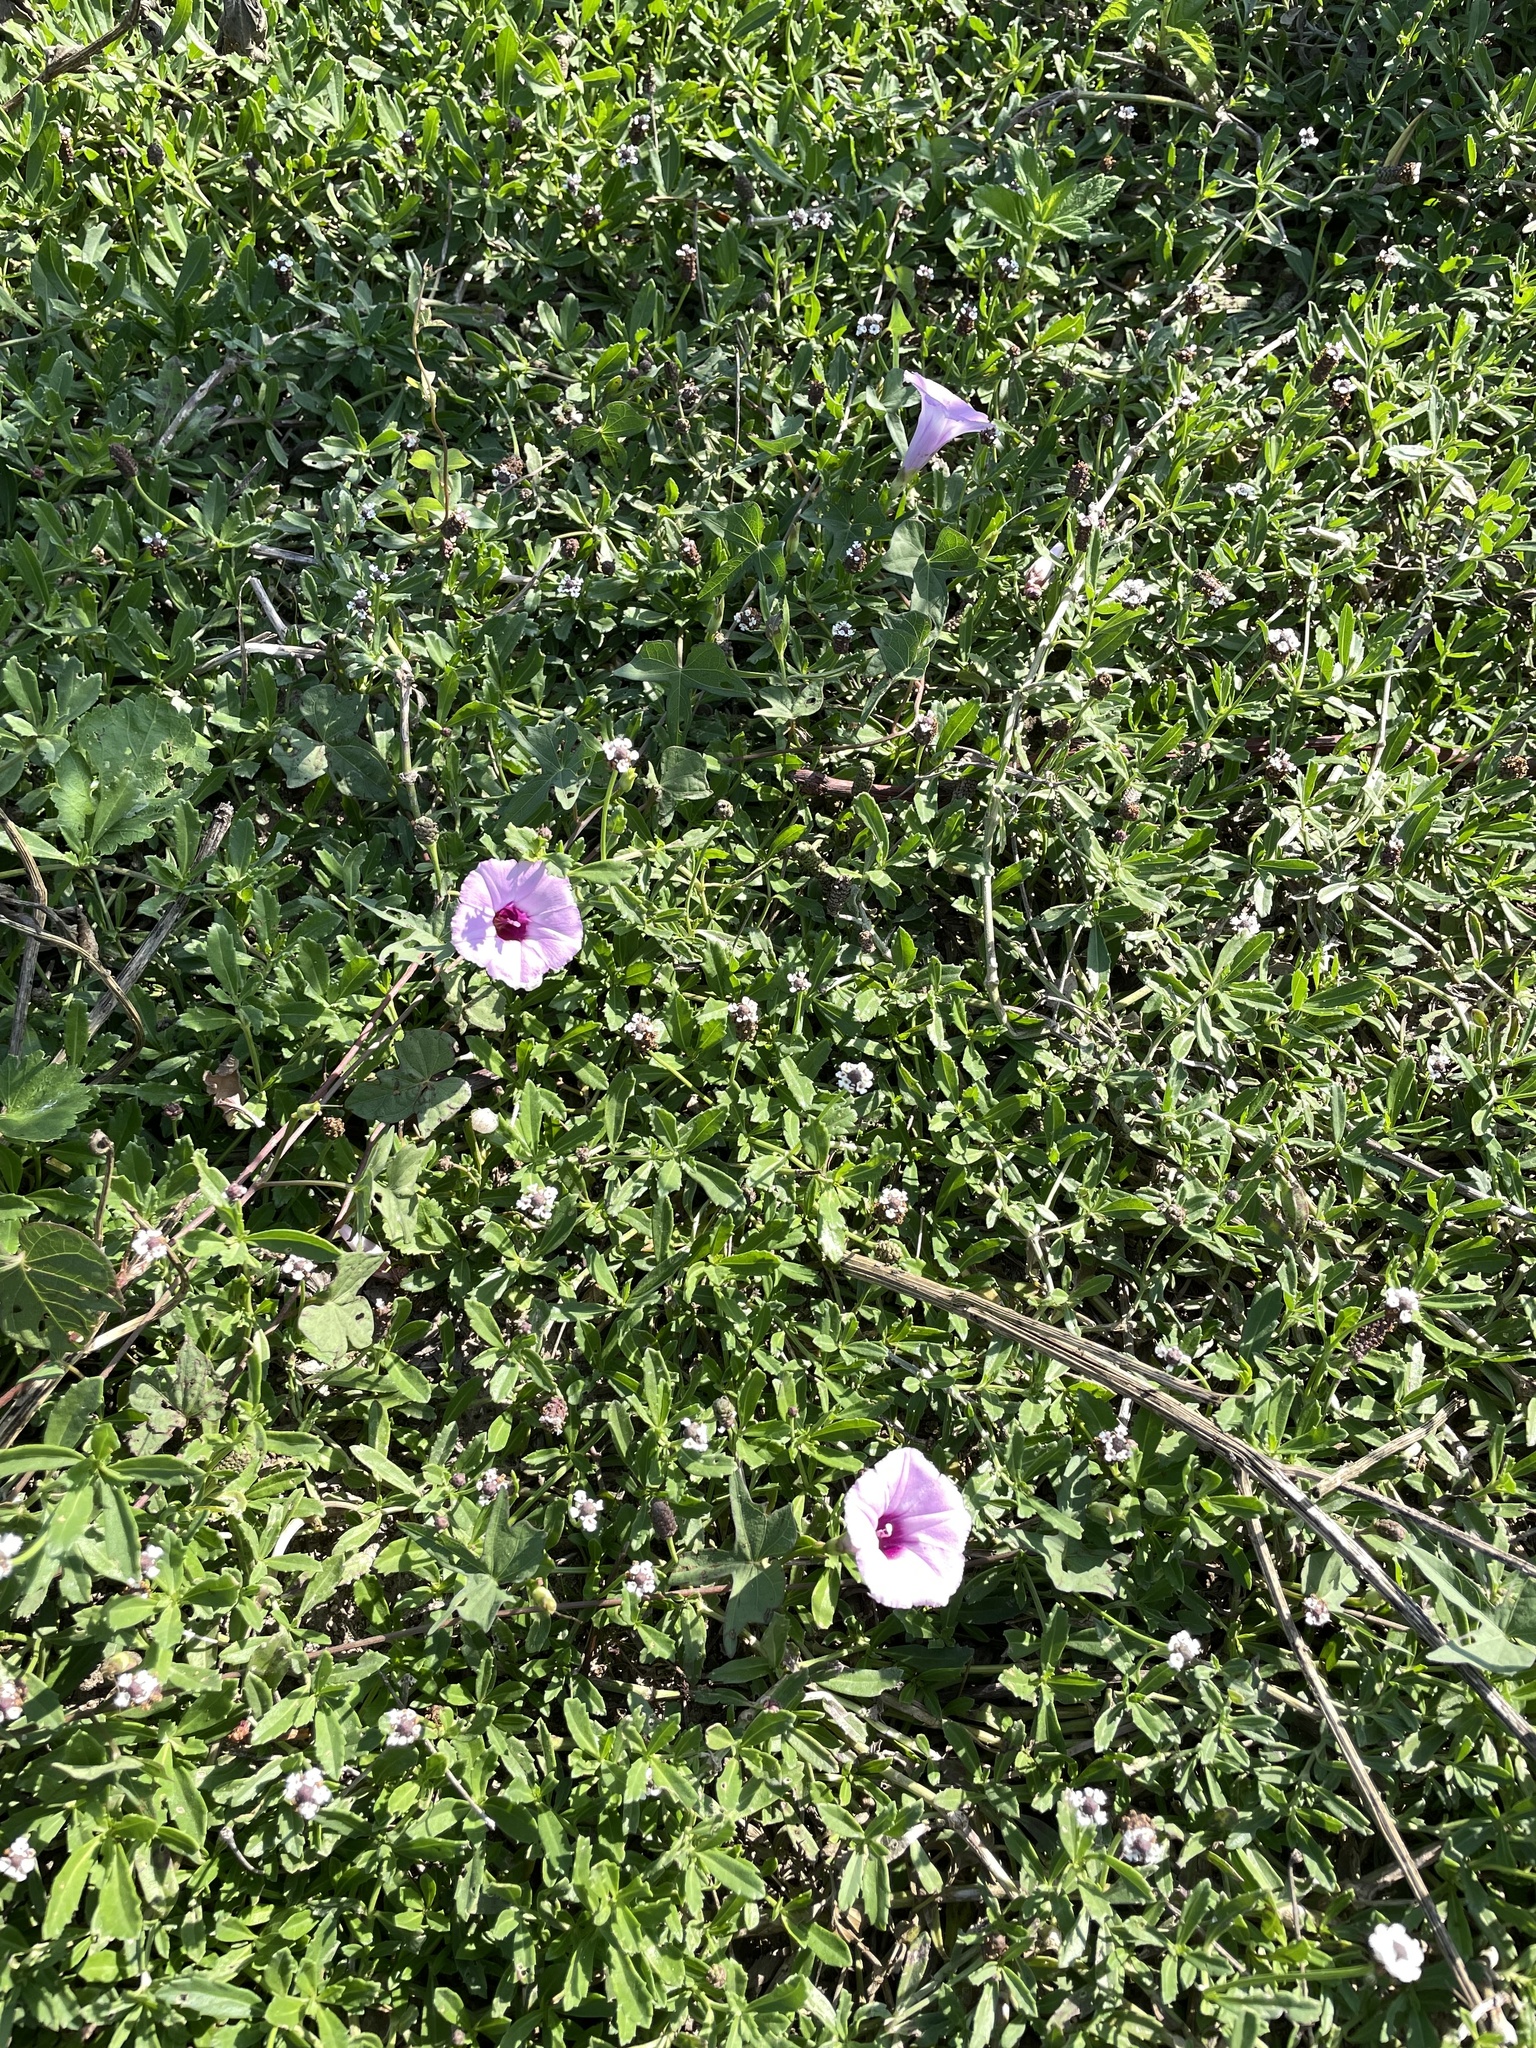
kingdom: Plantae
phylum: Tracheophyta
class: Magnoliopsida
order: Solanales
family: Convolvulaceae
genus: Ipomoea
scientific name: Ipomoea cordatotriloba
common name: Cotton morning glory
